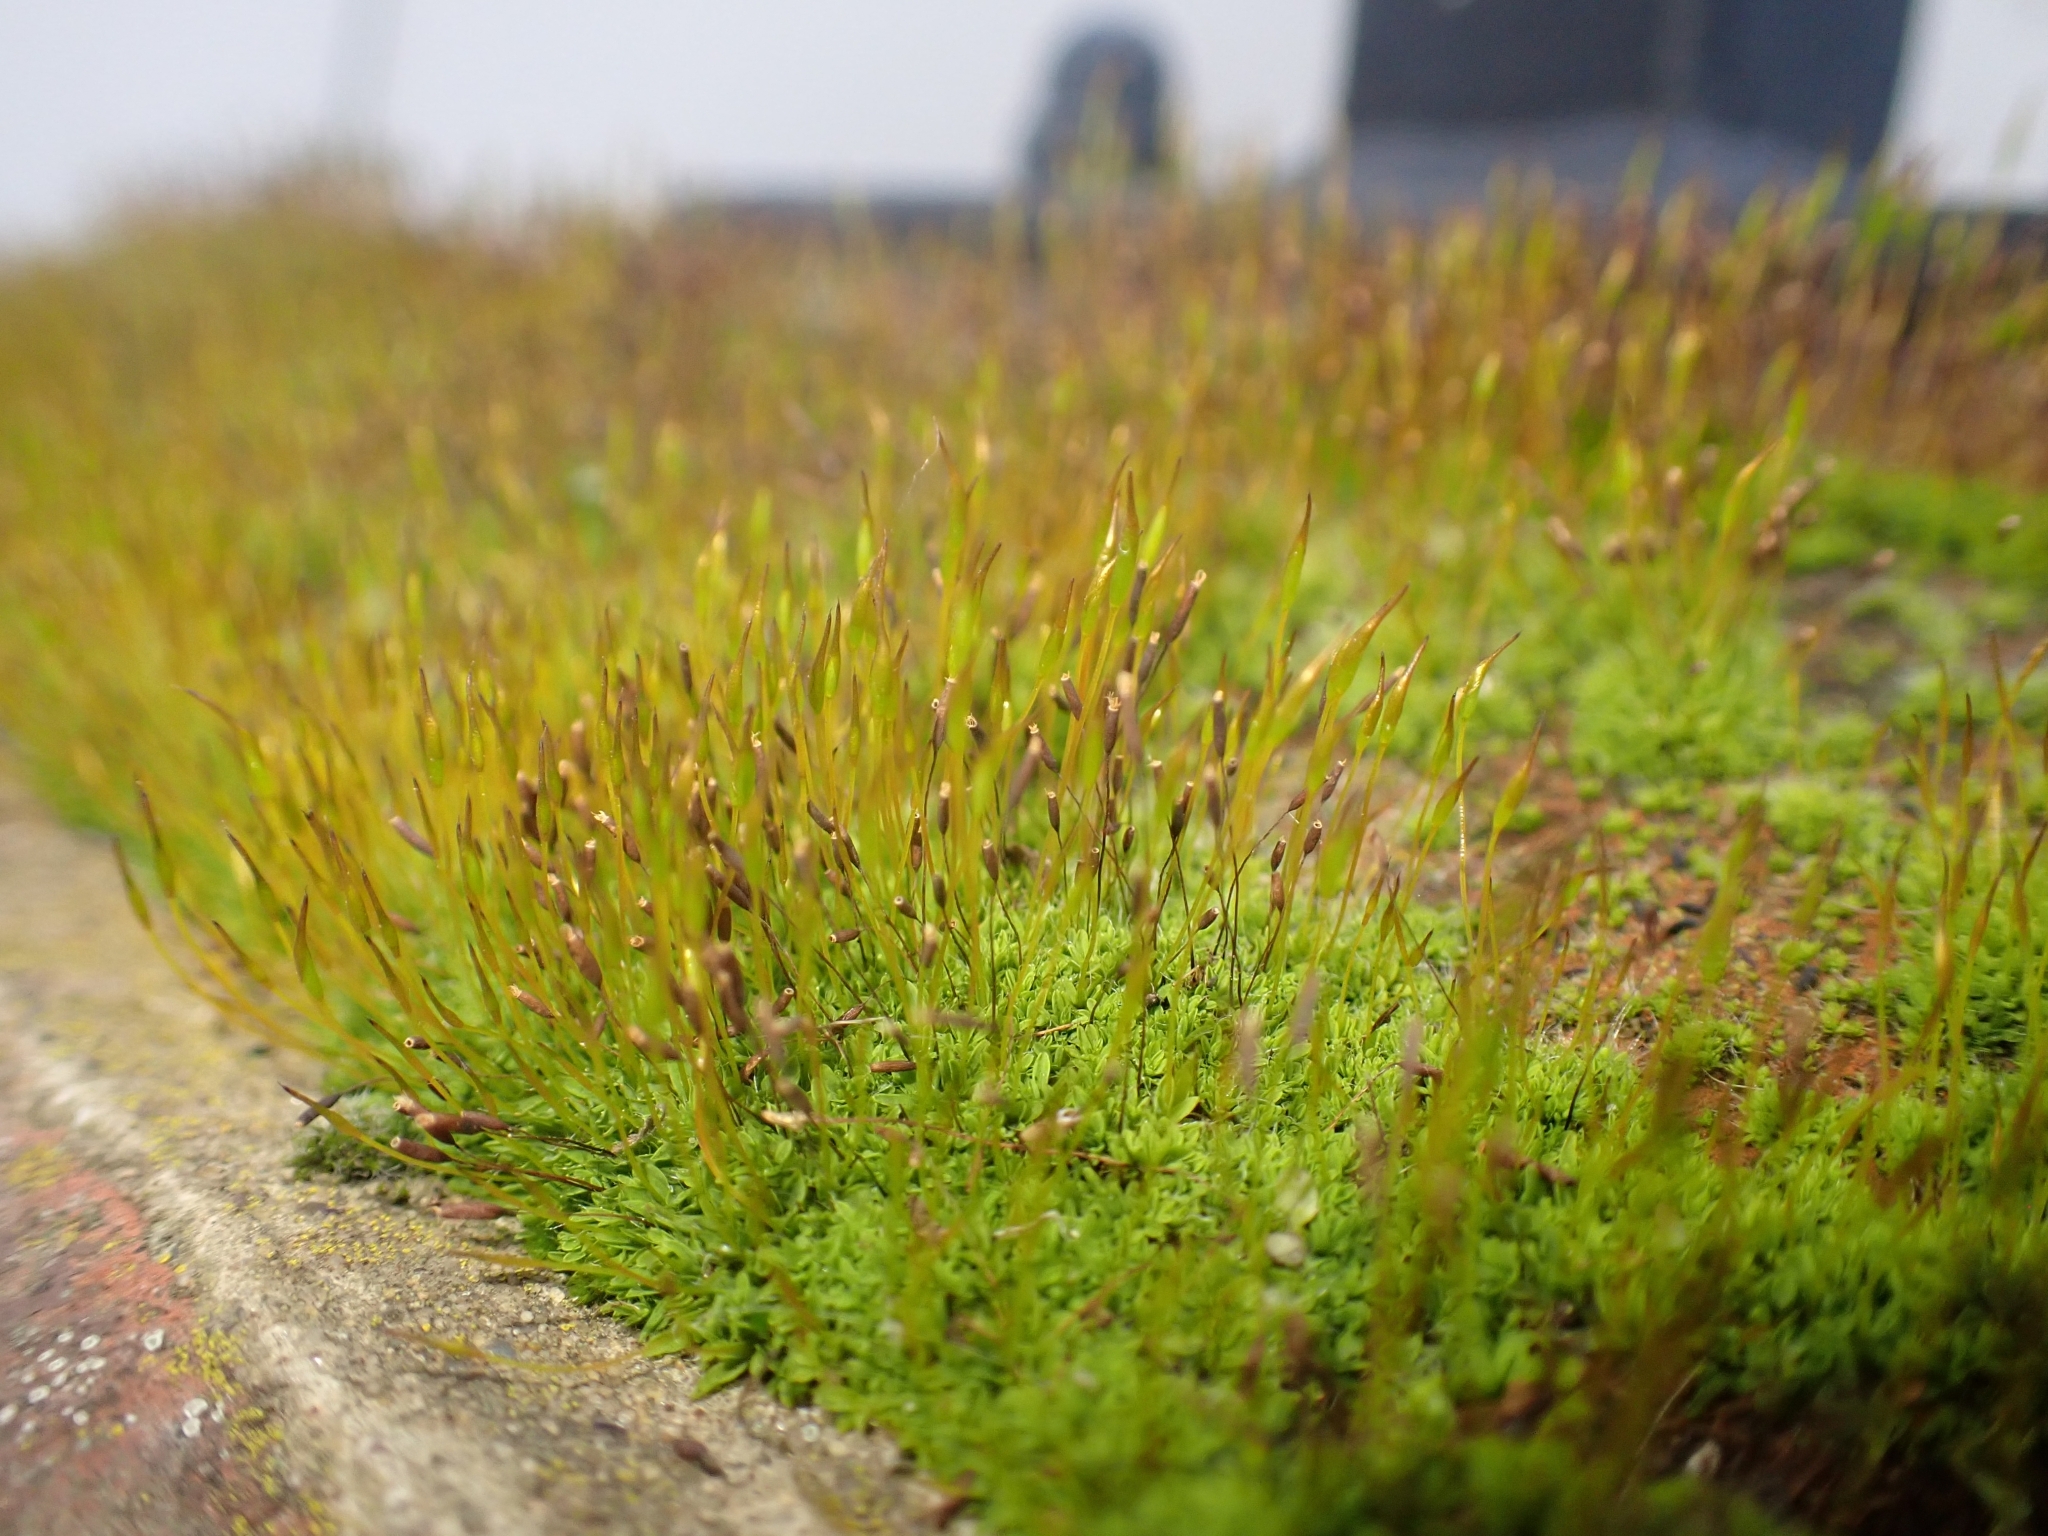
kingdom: Plantae
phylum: Bryophyta
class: Bryopsida
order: Pottiales
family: Pottiaceae
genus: Tortula
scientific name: Tortula muralis
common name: Wall screw-moss
